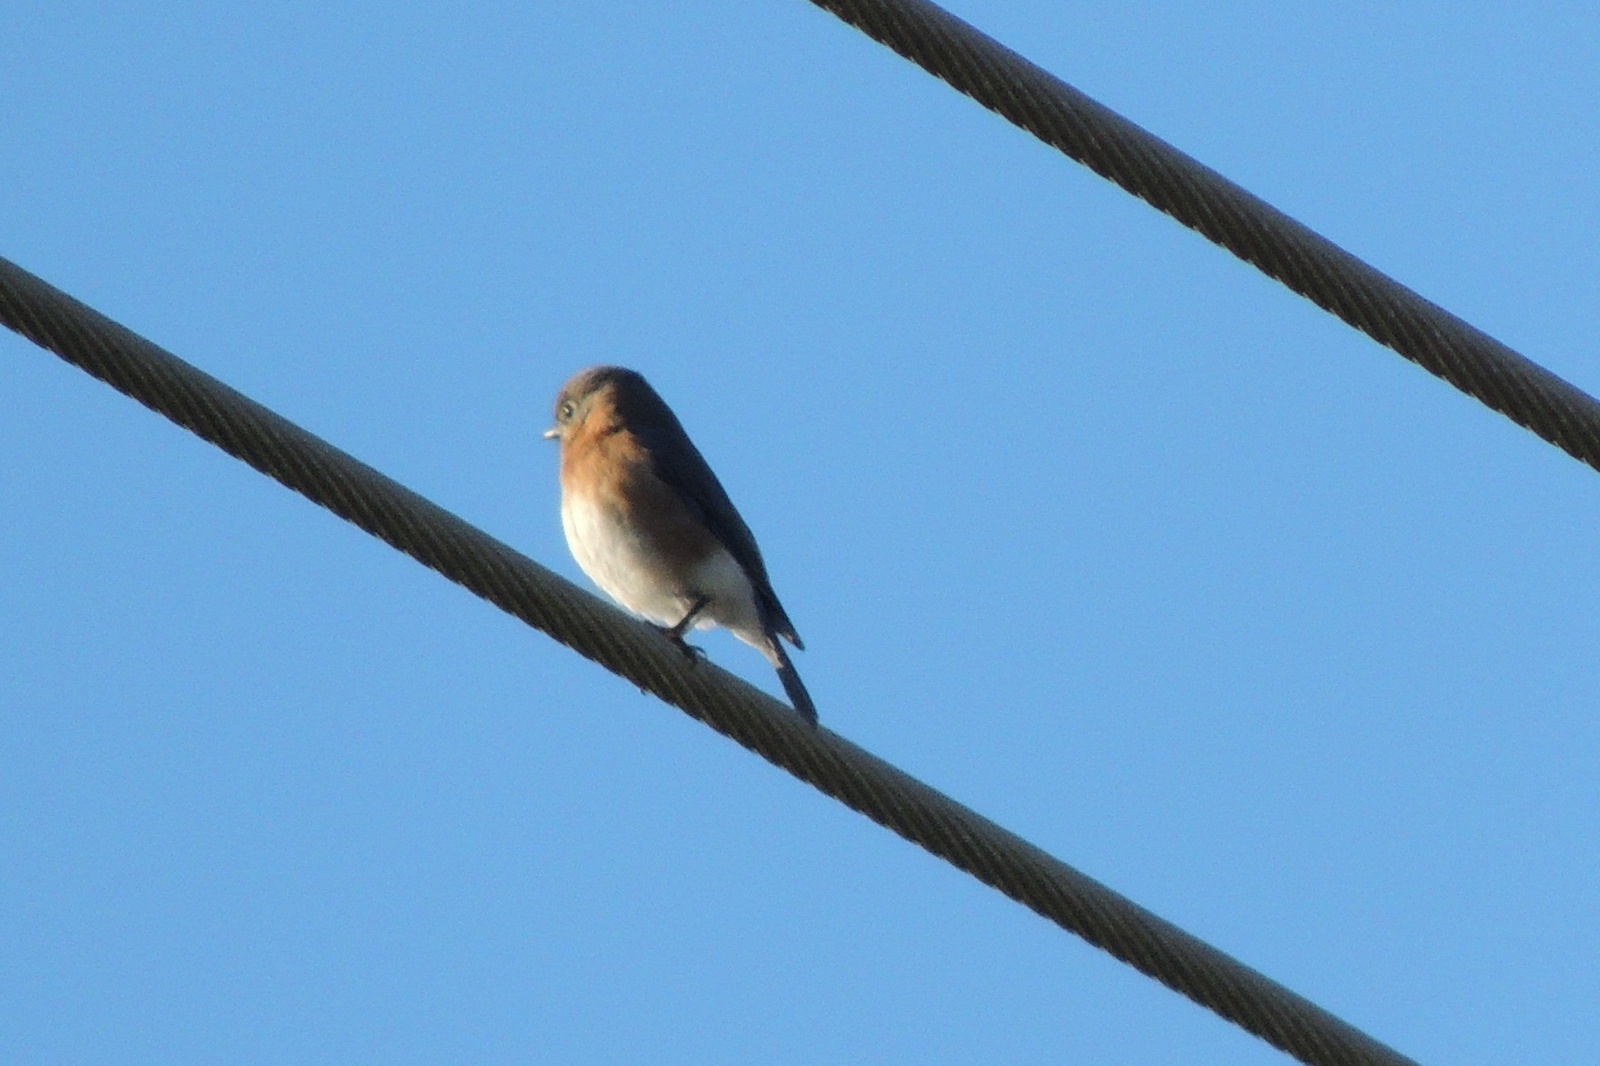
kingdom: Animalia
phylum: Chordata
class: Aves
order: Passeriformes
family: Turdidae
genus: Sialia
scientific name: Sialia sialis
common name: Eastern bluebird
